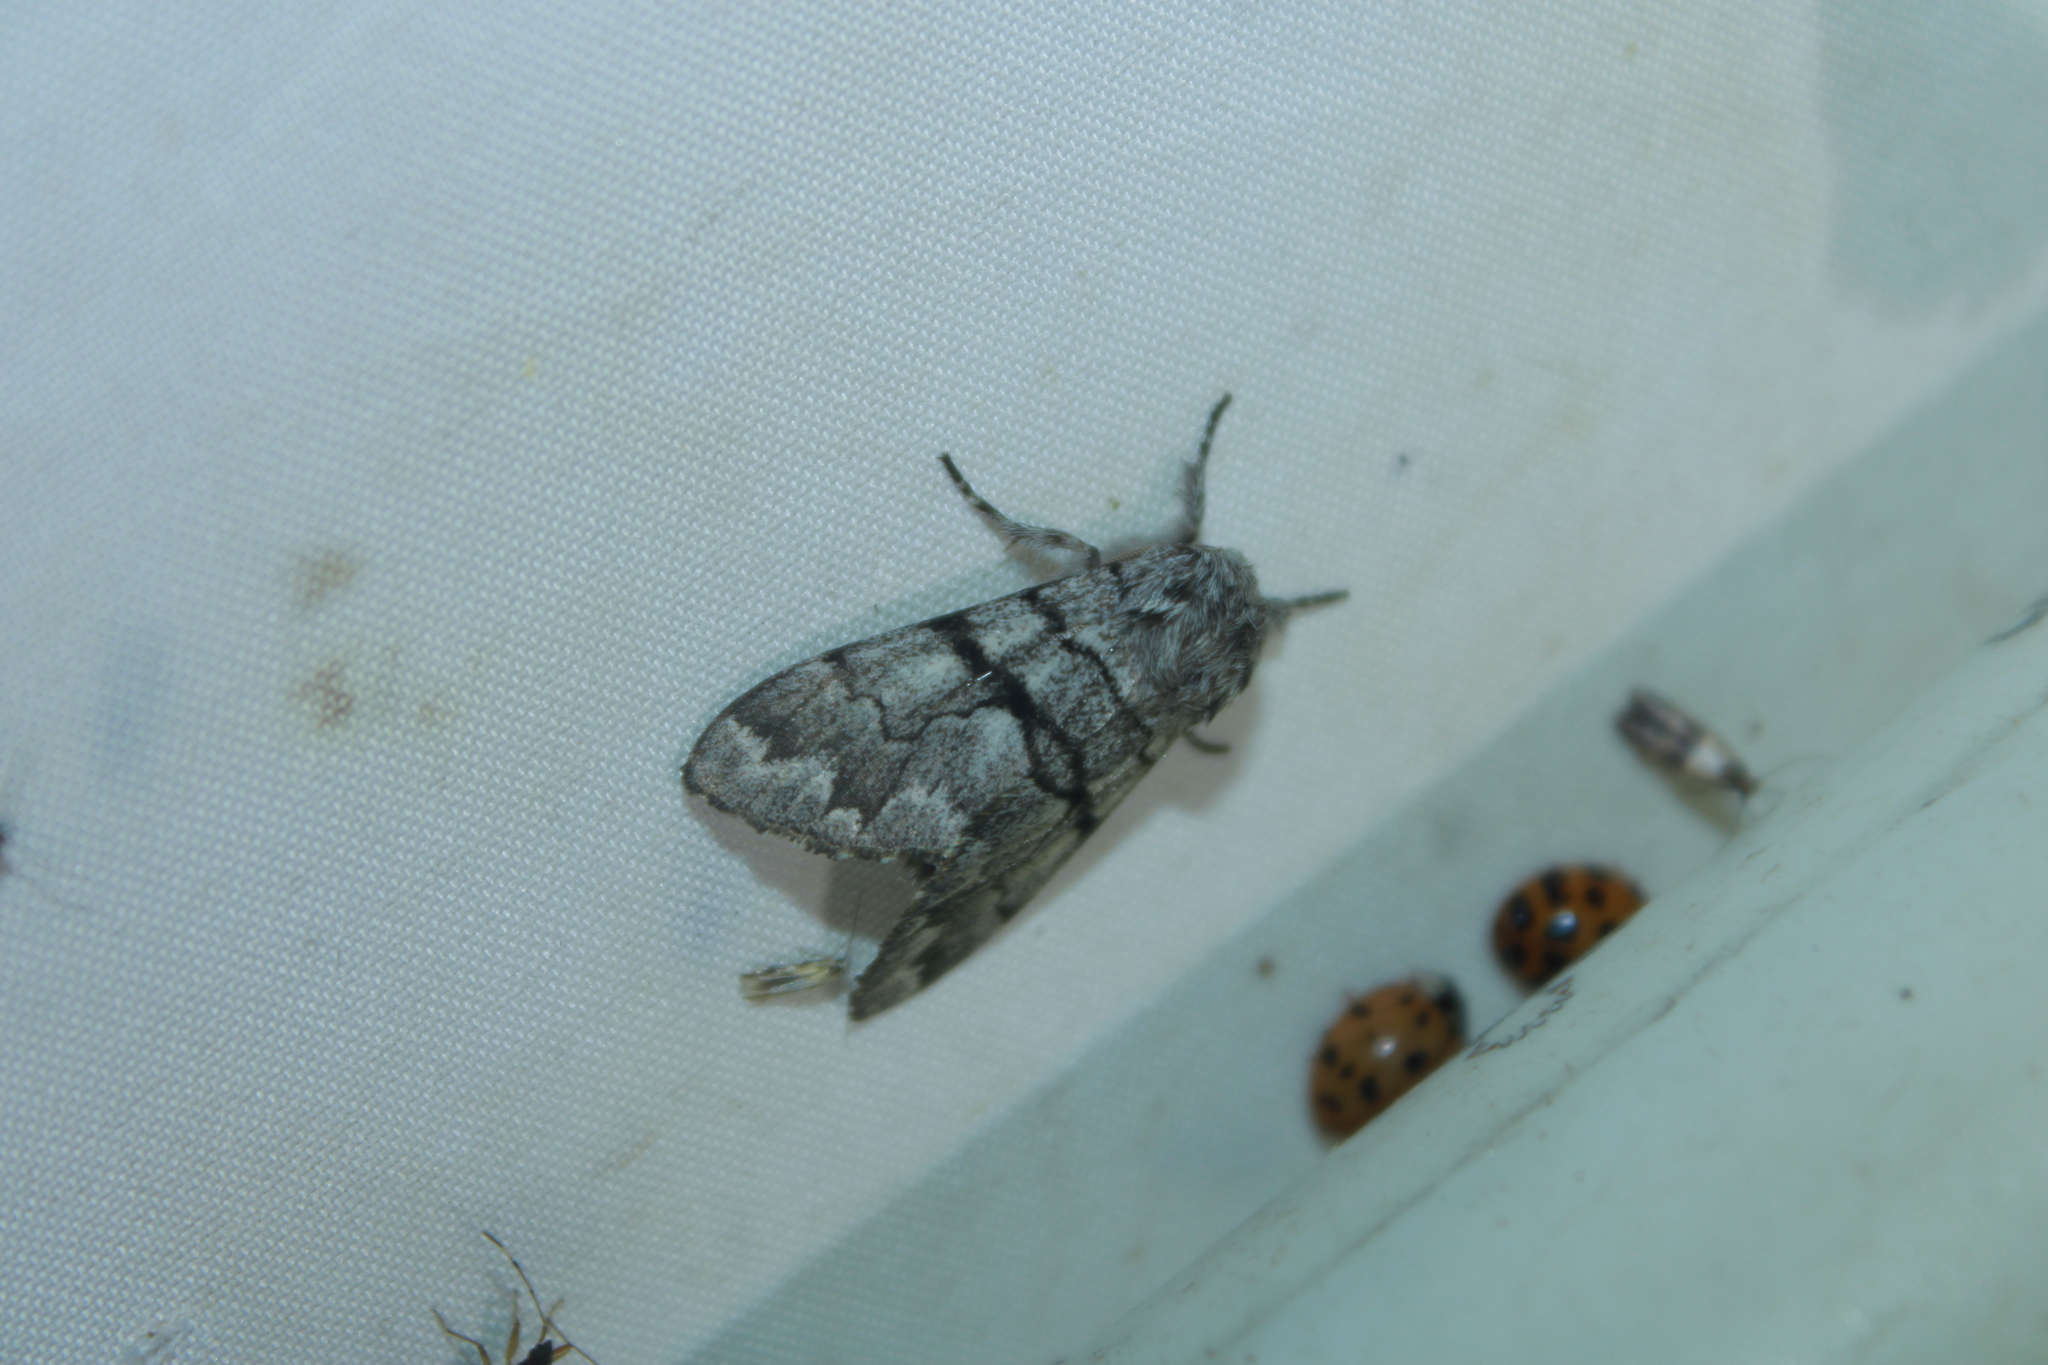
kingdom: Animalia
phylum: Arthropoda
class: Insecta
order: Lepidoptera
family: Noctuidae
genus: Panthea
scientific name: Panthea furcilla
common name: Eastern panthea moth
